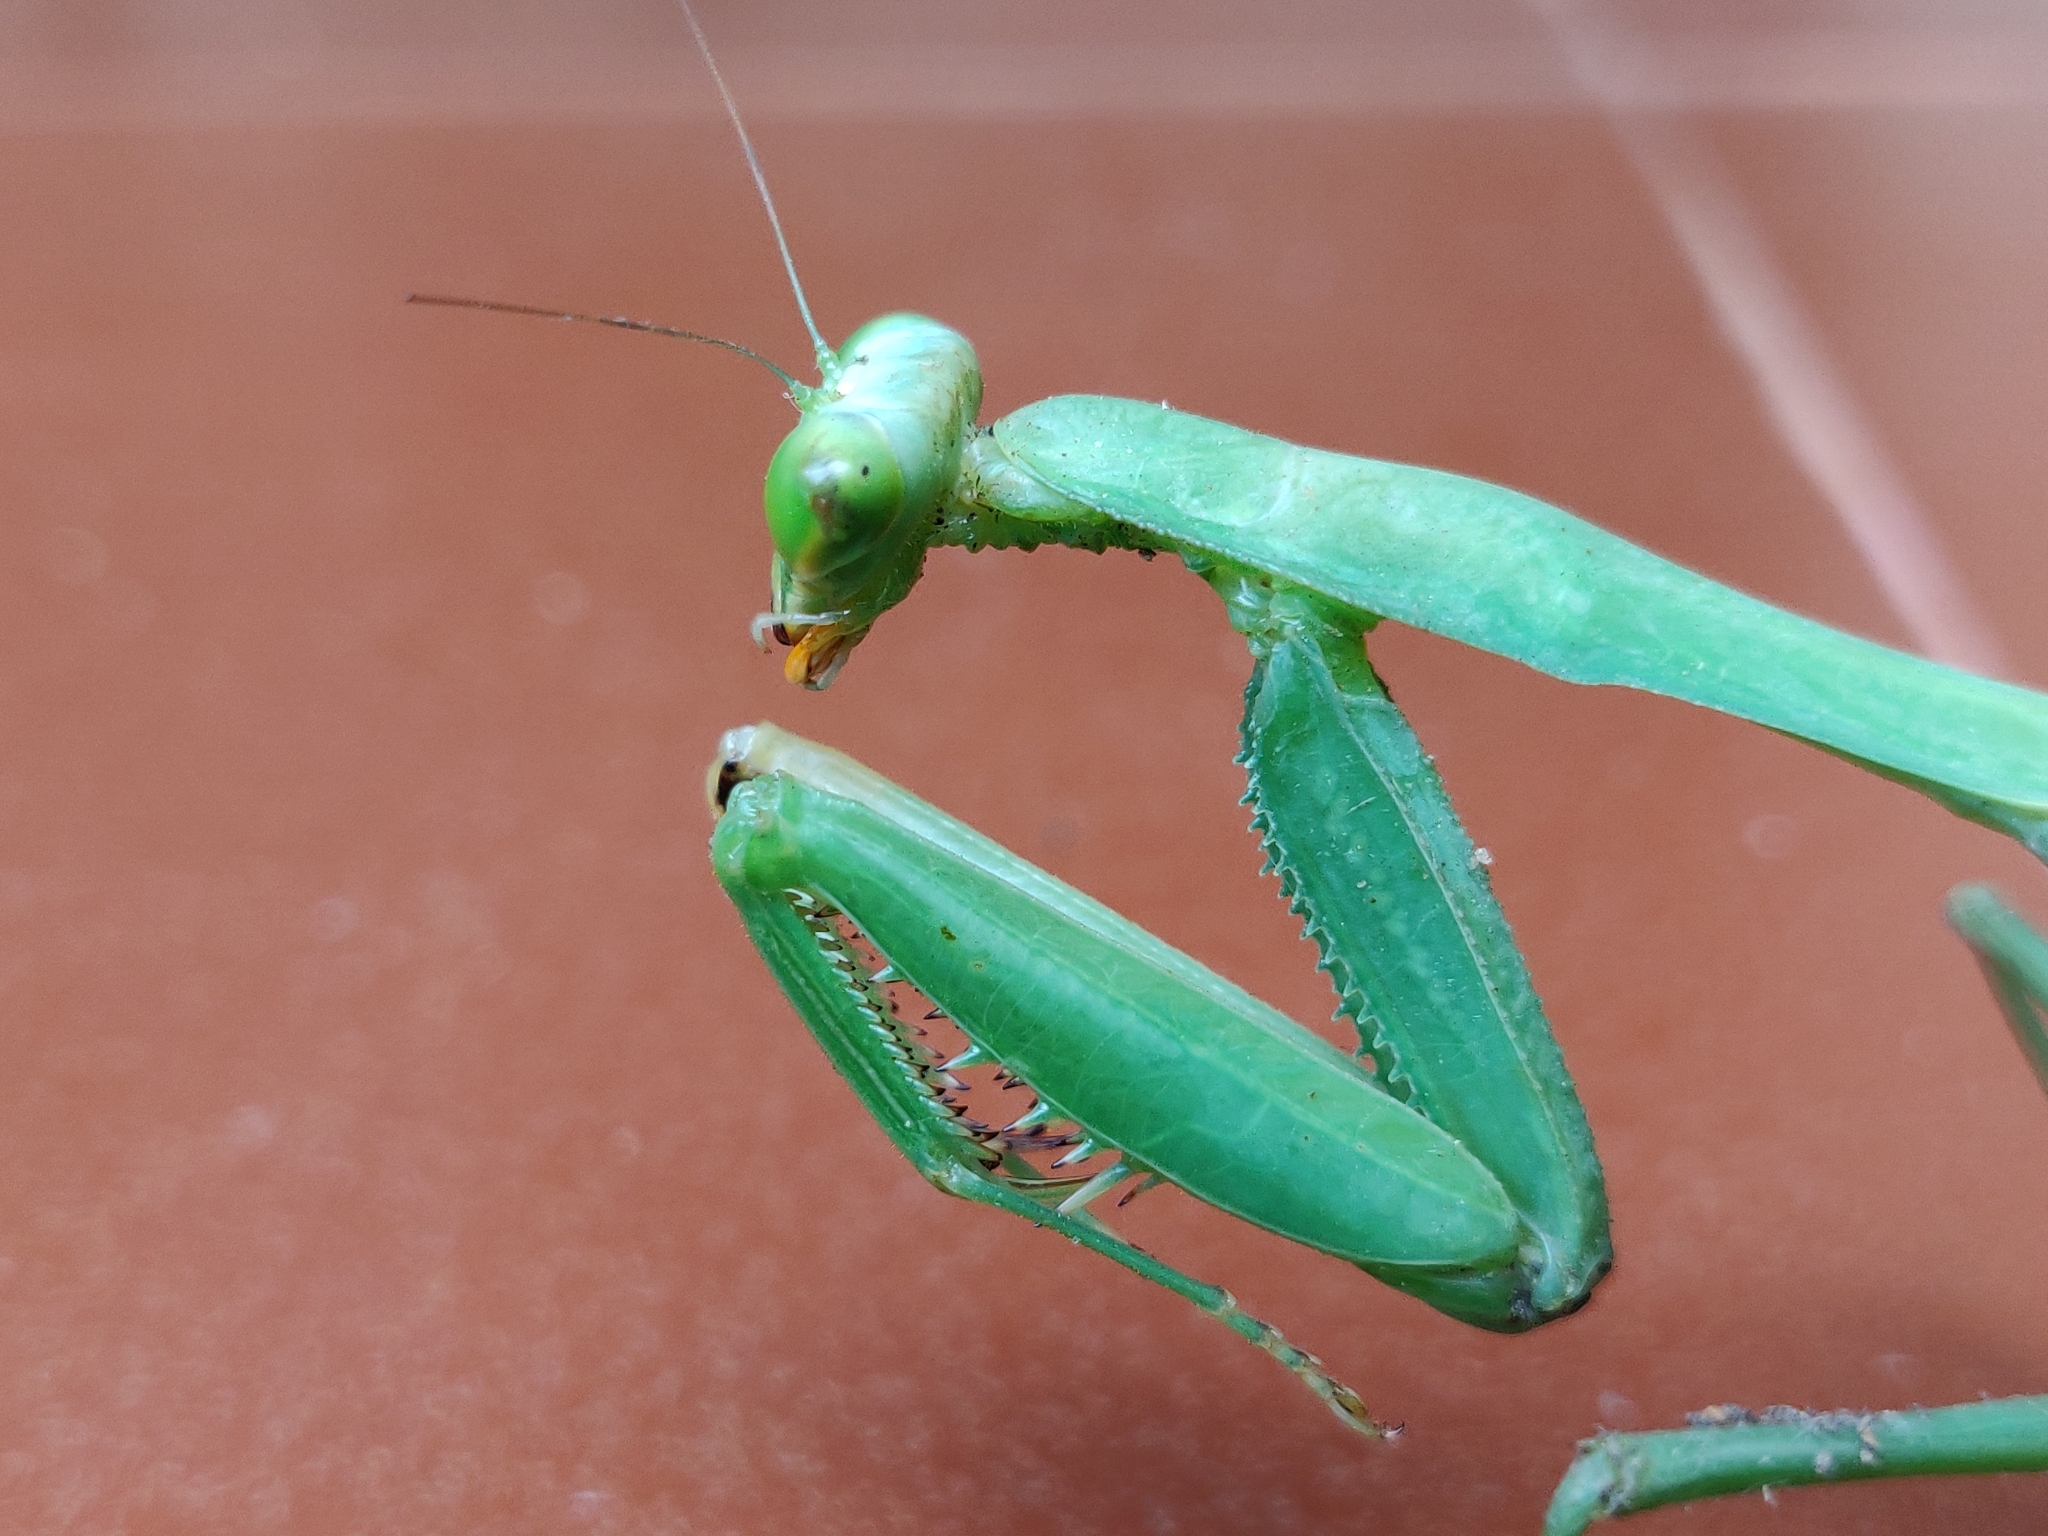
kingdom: Animalia
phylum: Arthropoda
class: Insecta
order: Mantodea
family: Mantidae
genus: Hierodula
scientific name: Hierodula membranacea
